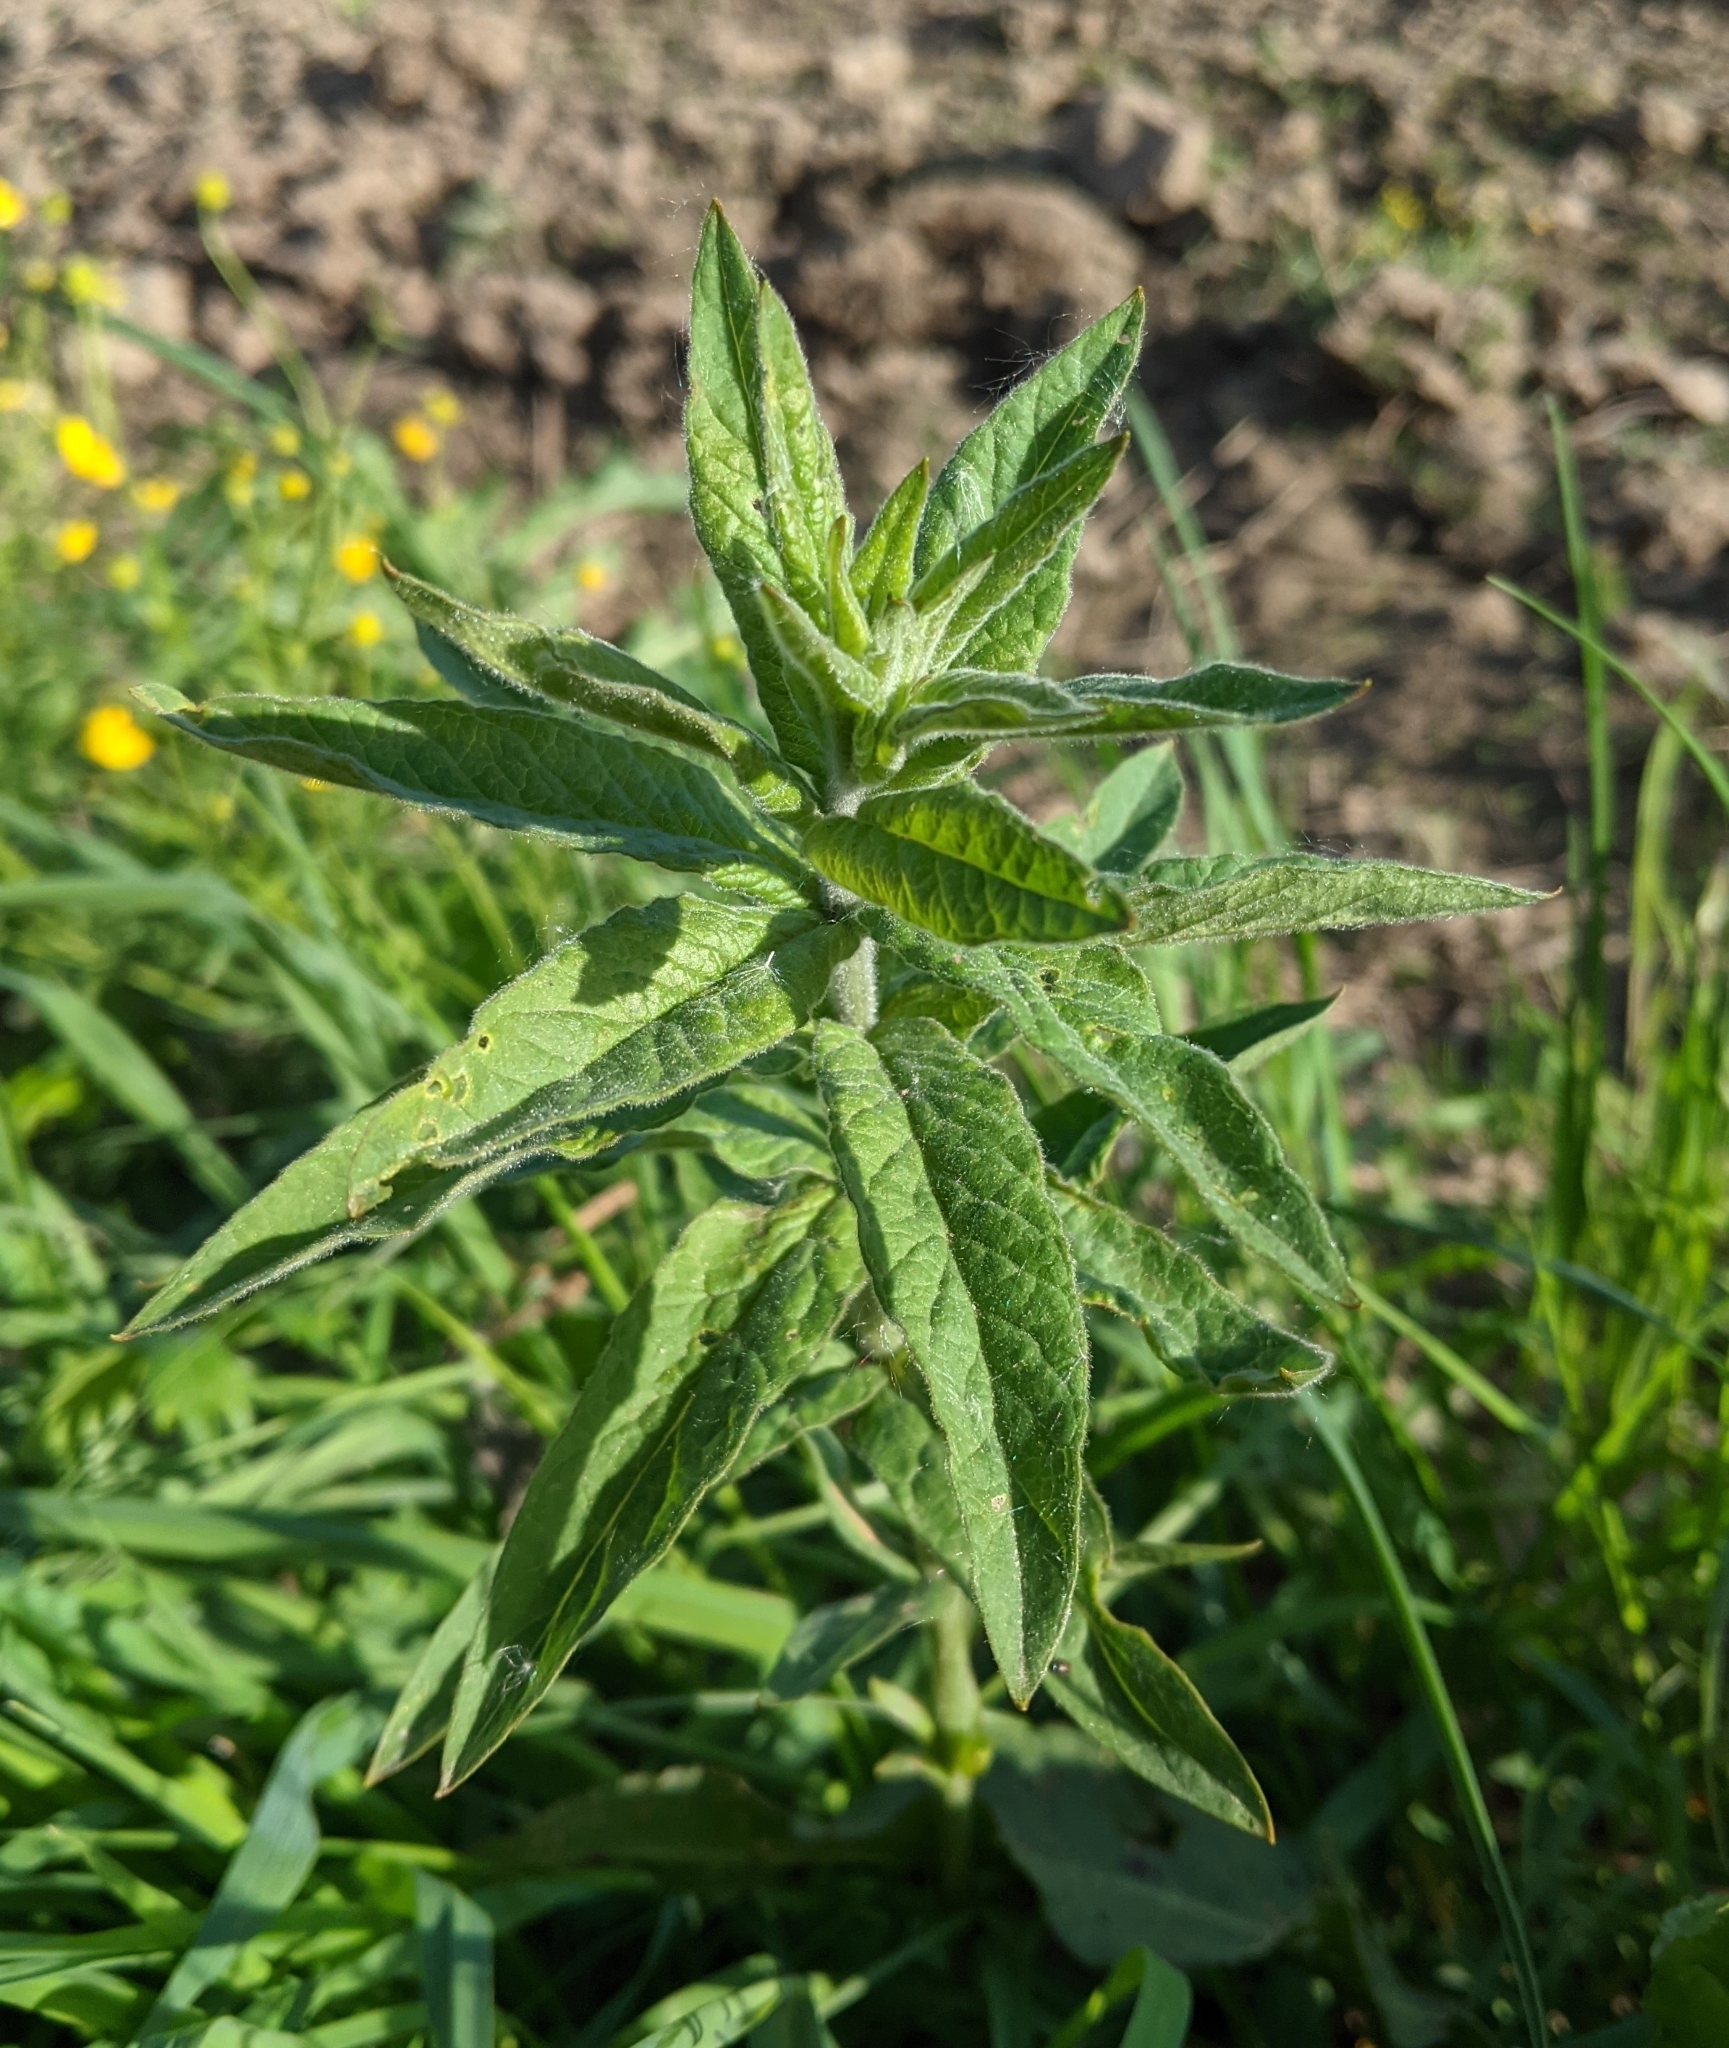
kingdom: Plantae
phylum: Tracheophyta
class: Magnoliopsida
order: Ericales
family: Primulaceae
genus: Lysimachia
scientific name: Lysimachia vulgaris
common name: Yellow loosestrife
